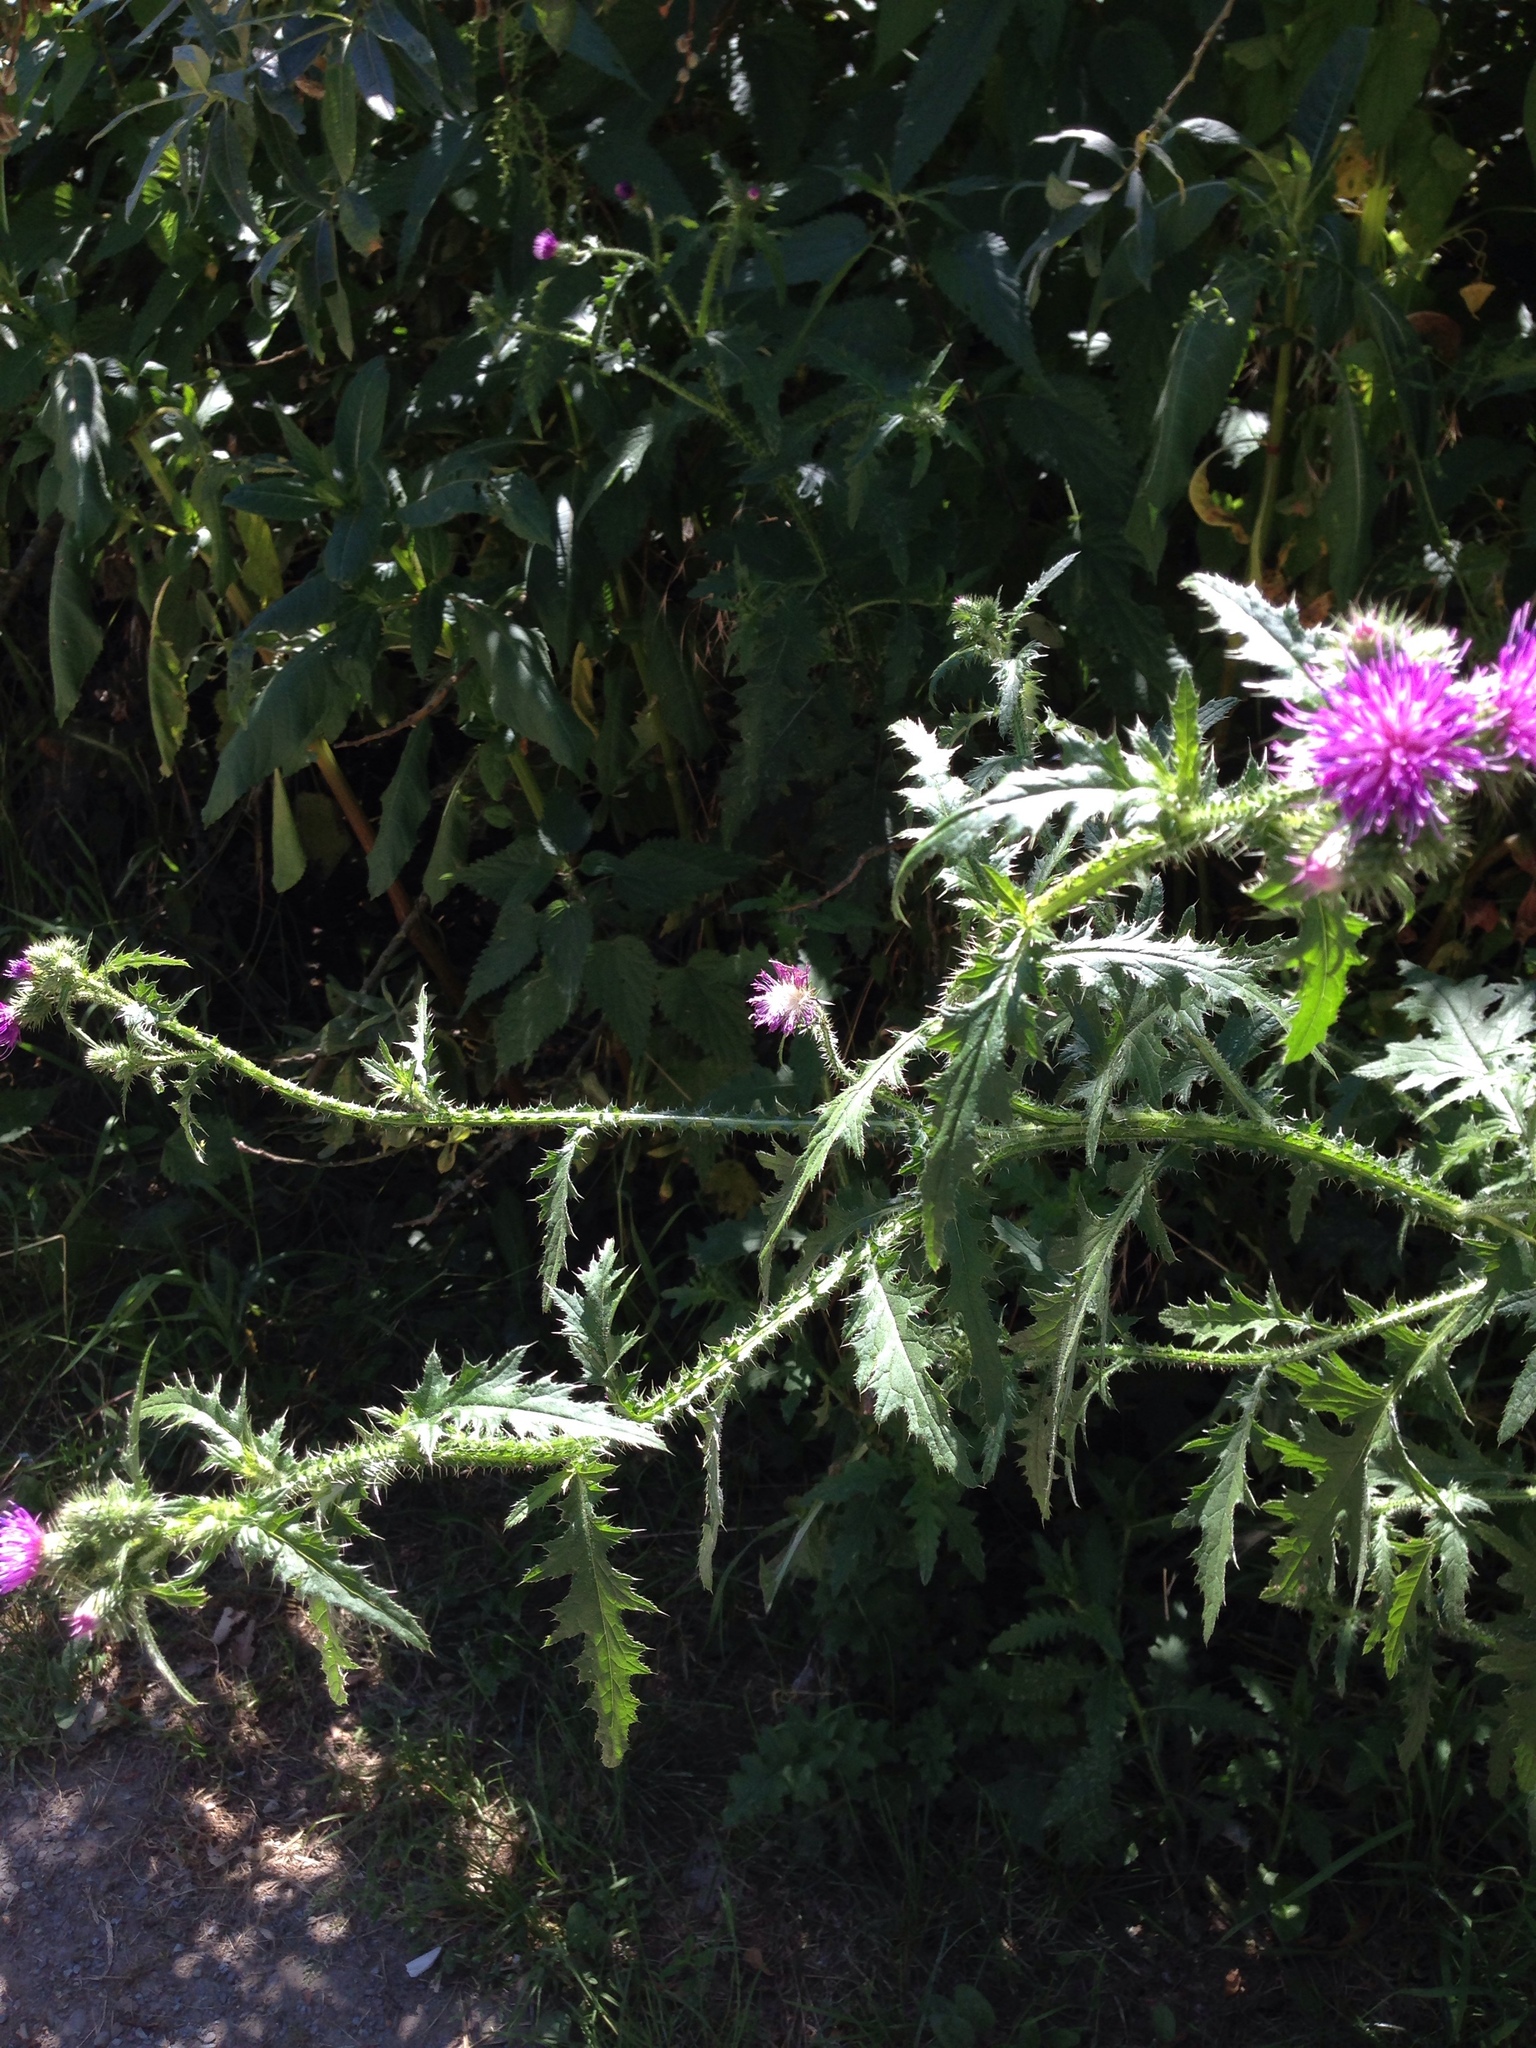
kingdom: Plantae
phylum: Tracheophyta
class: Magnoliopsida
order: Asterales
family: Asteraceae
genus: Carduus
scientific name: Carduus crispus
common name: Welted thistle
